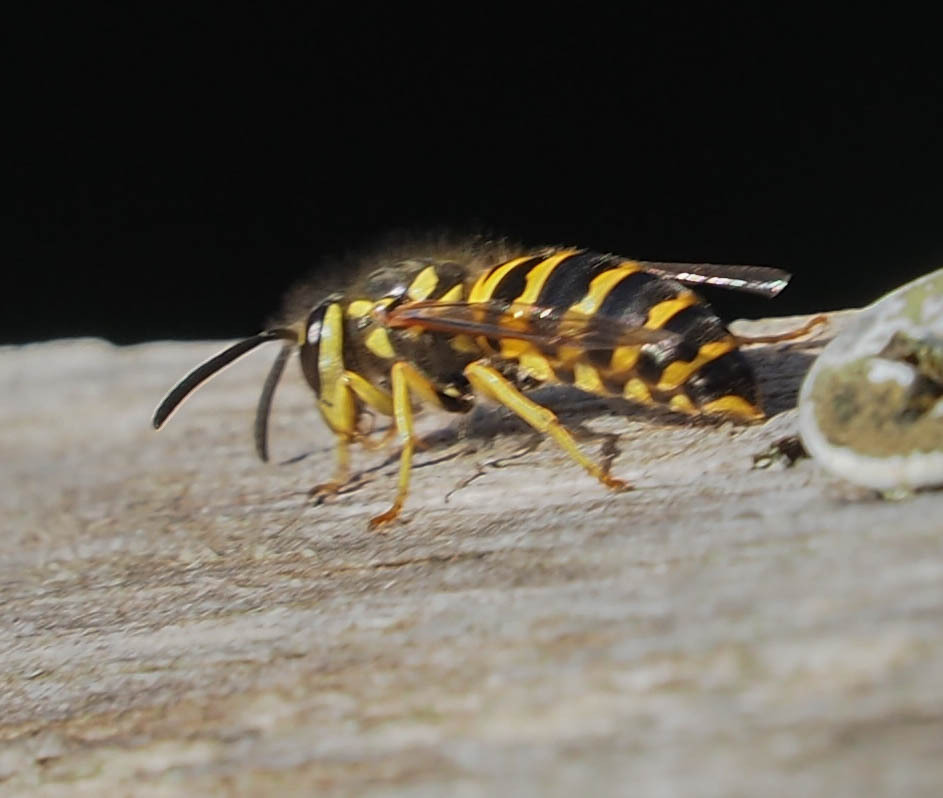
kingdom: Animalia
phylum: Arthropoda
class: Insecta
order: Hymenoptera
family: Vespidae
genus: Vespula
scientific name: Vespula maculifrons
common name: Eastern yellowjacket
